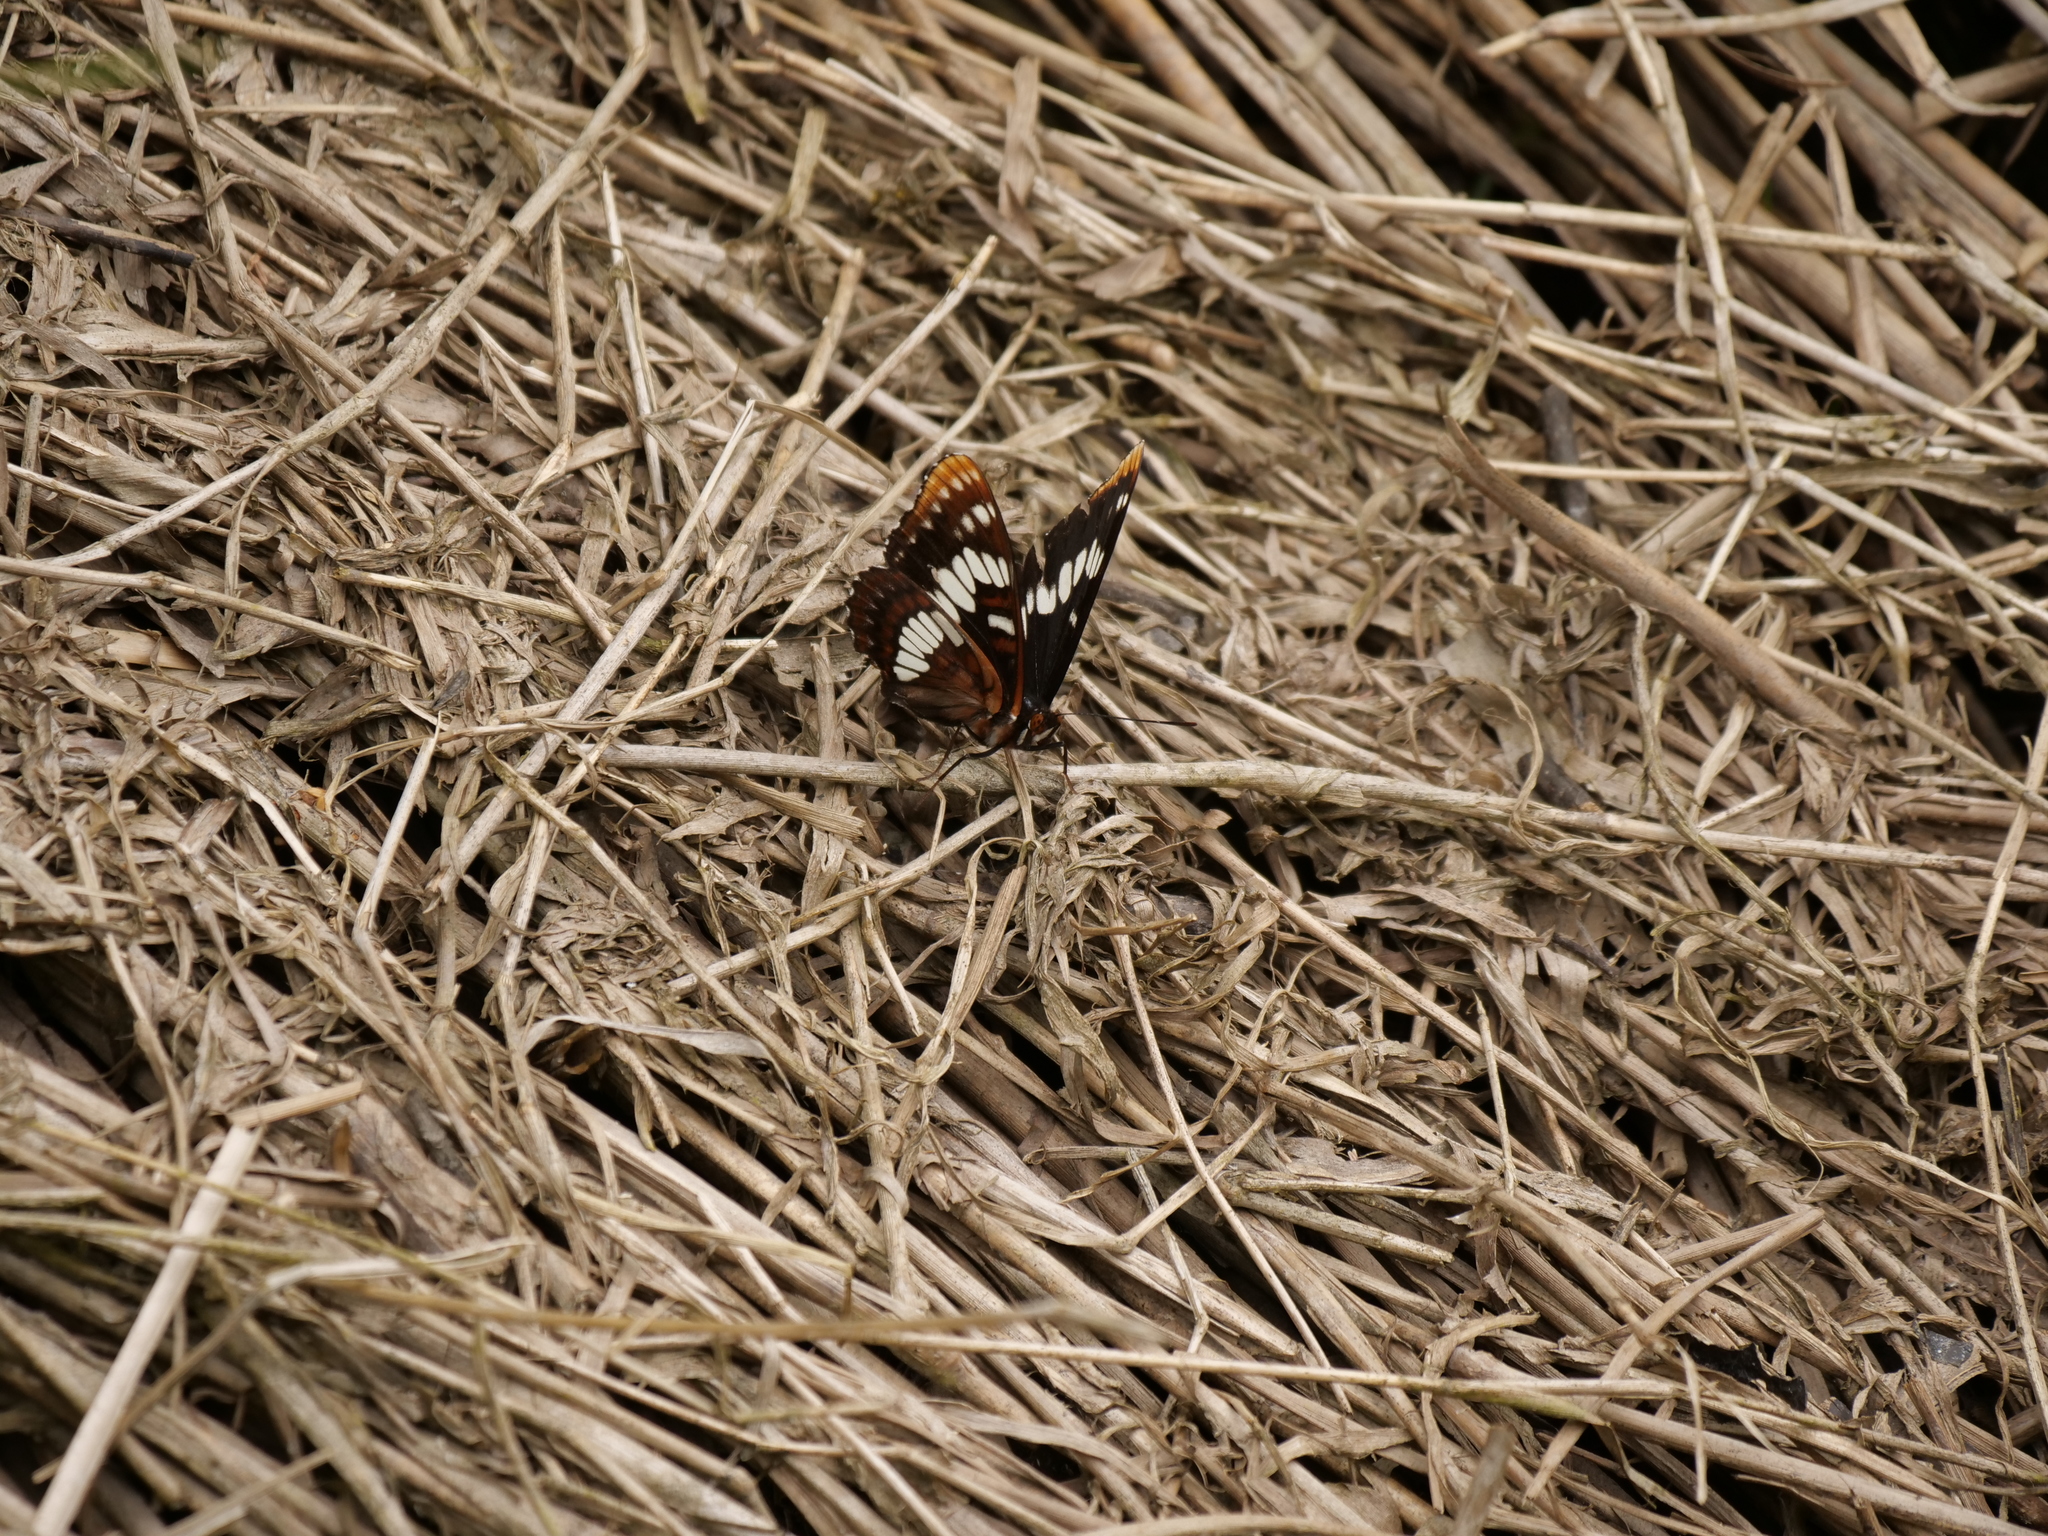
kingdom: Animalia
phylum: Arthropoda
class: Insecta
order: Lepidoptera
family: Nymphalidae
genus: Limenitis
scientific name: Limenitis lorquini
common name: Lorquin's admiral
